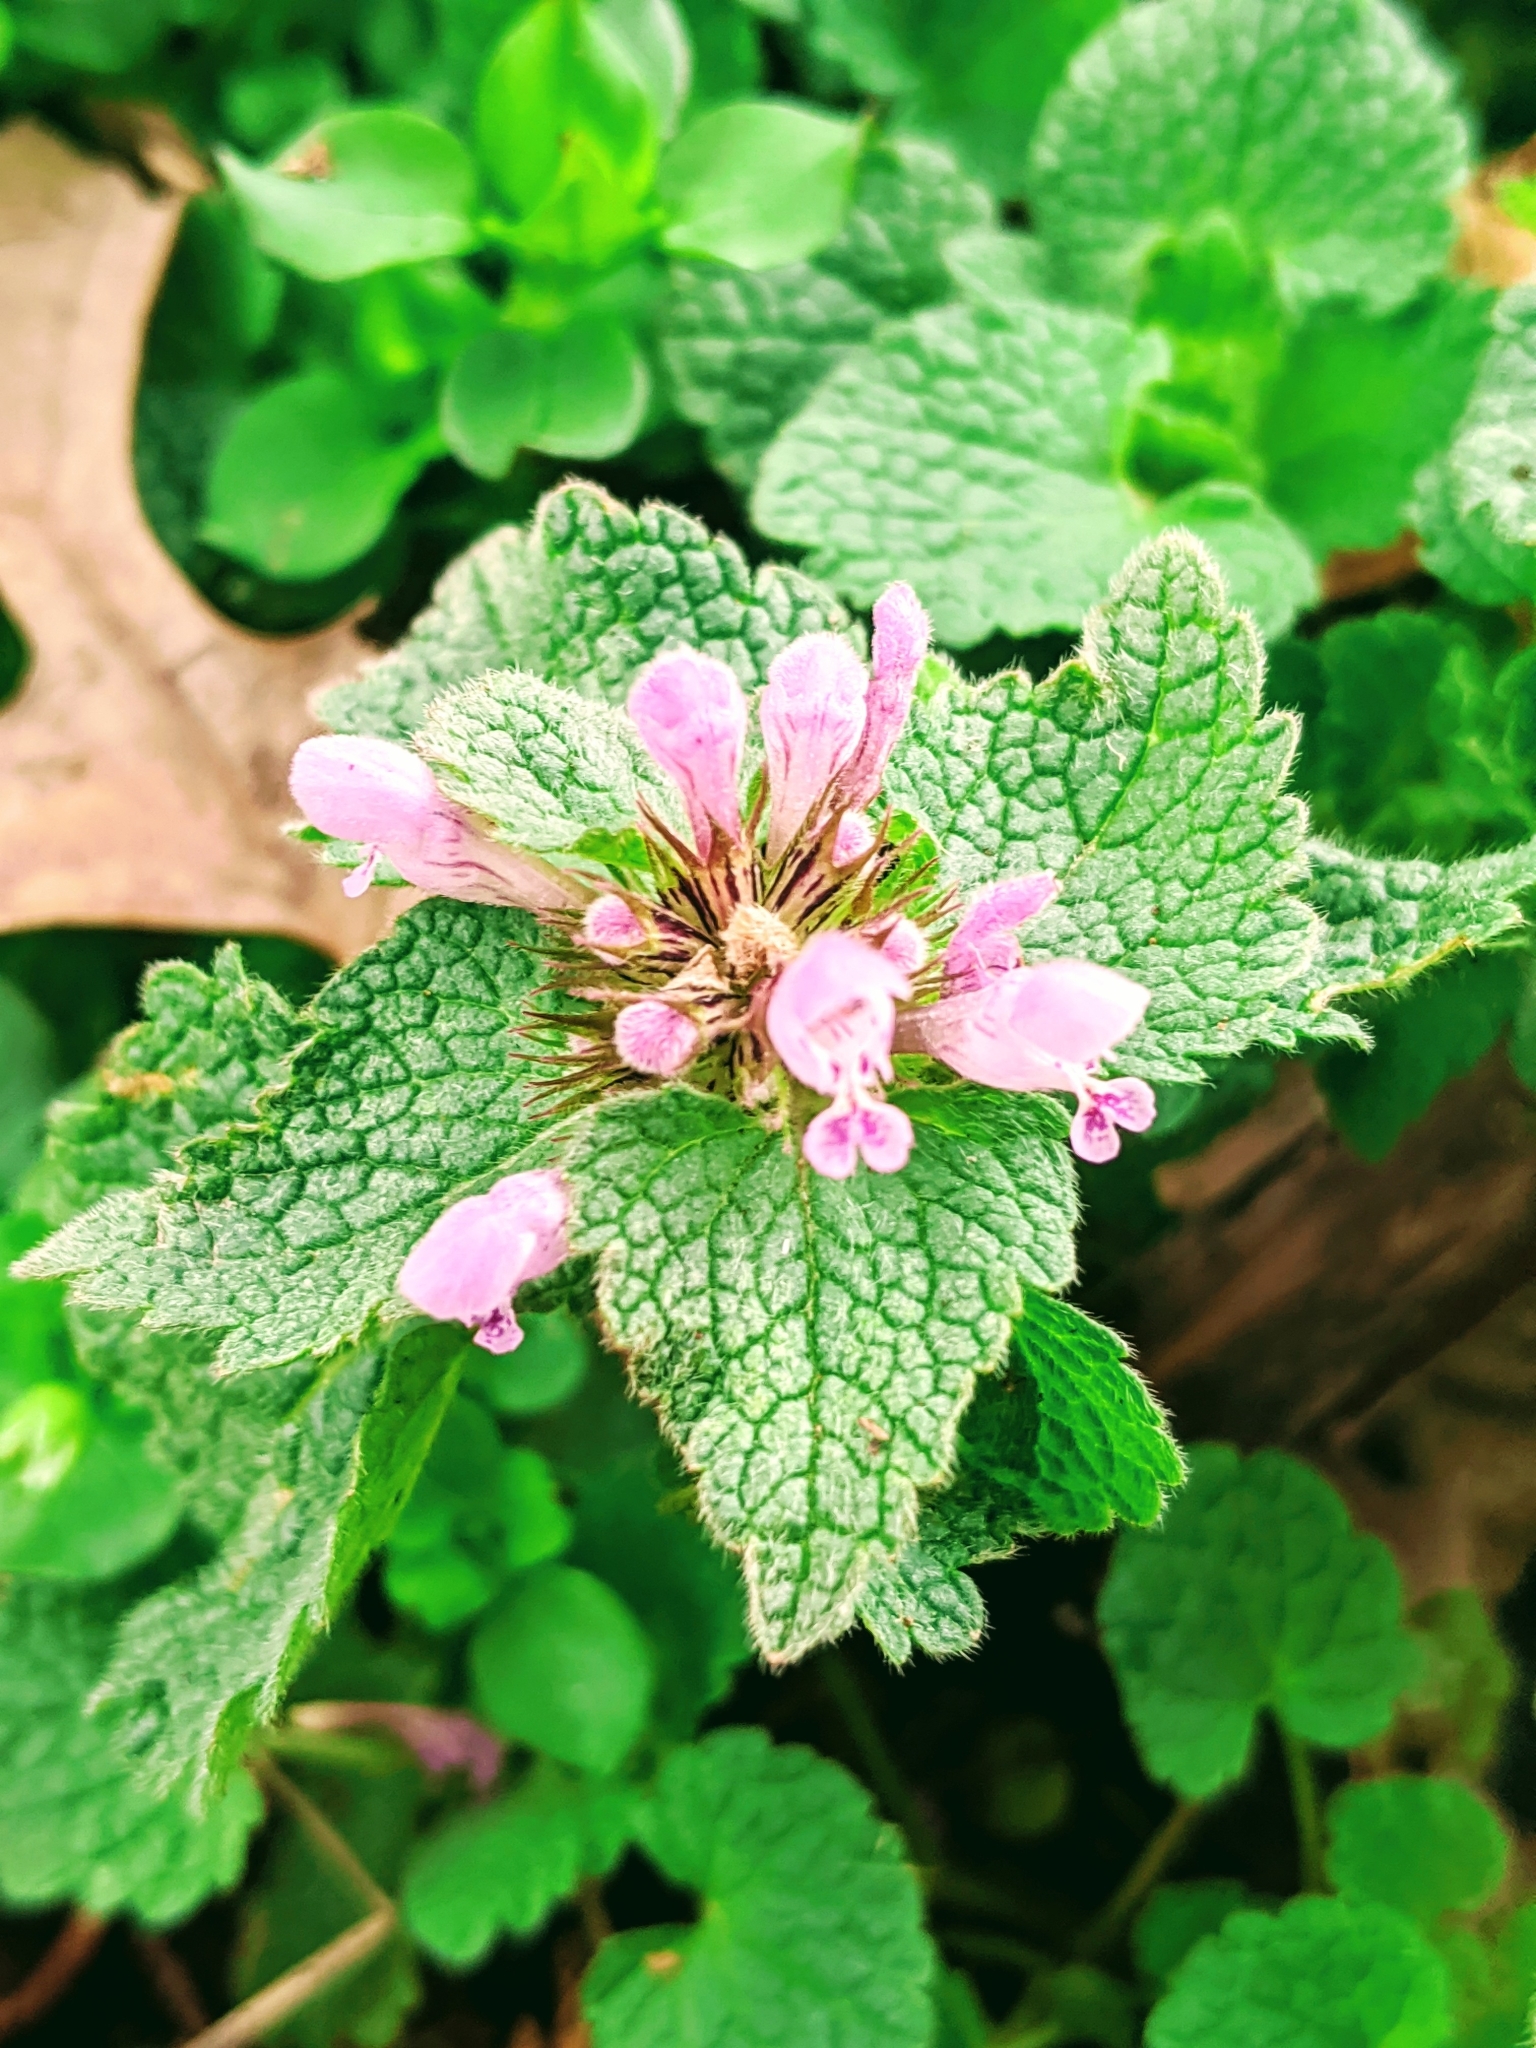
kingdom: Plantae
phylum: Tracheophyta
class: Magnoliopsida
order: Lamiales
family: Lamiaceae
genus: Lamium
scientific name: Lamium purpureum
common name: Red dead-nettle
